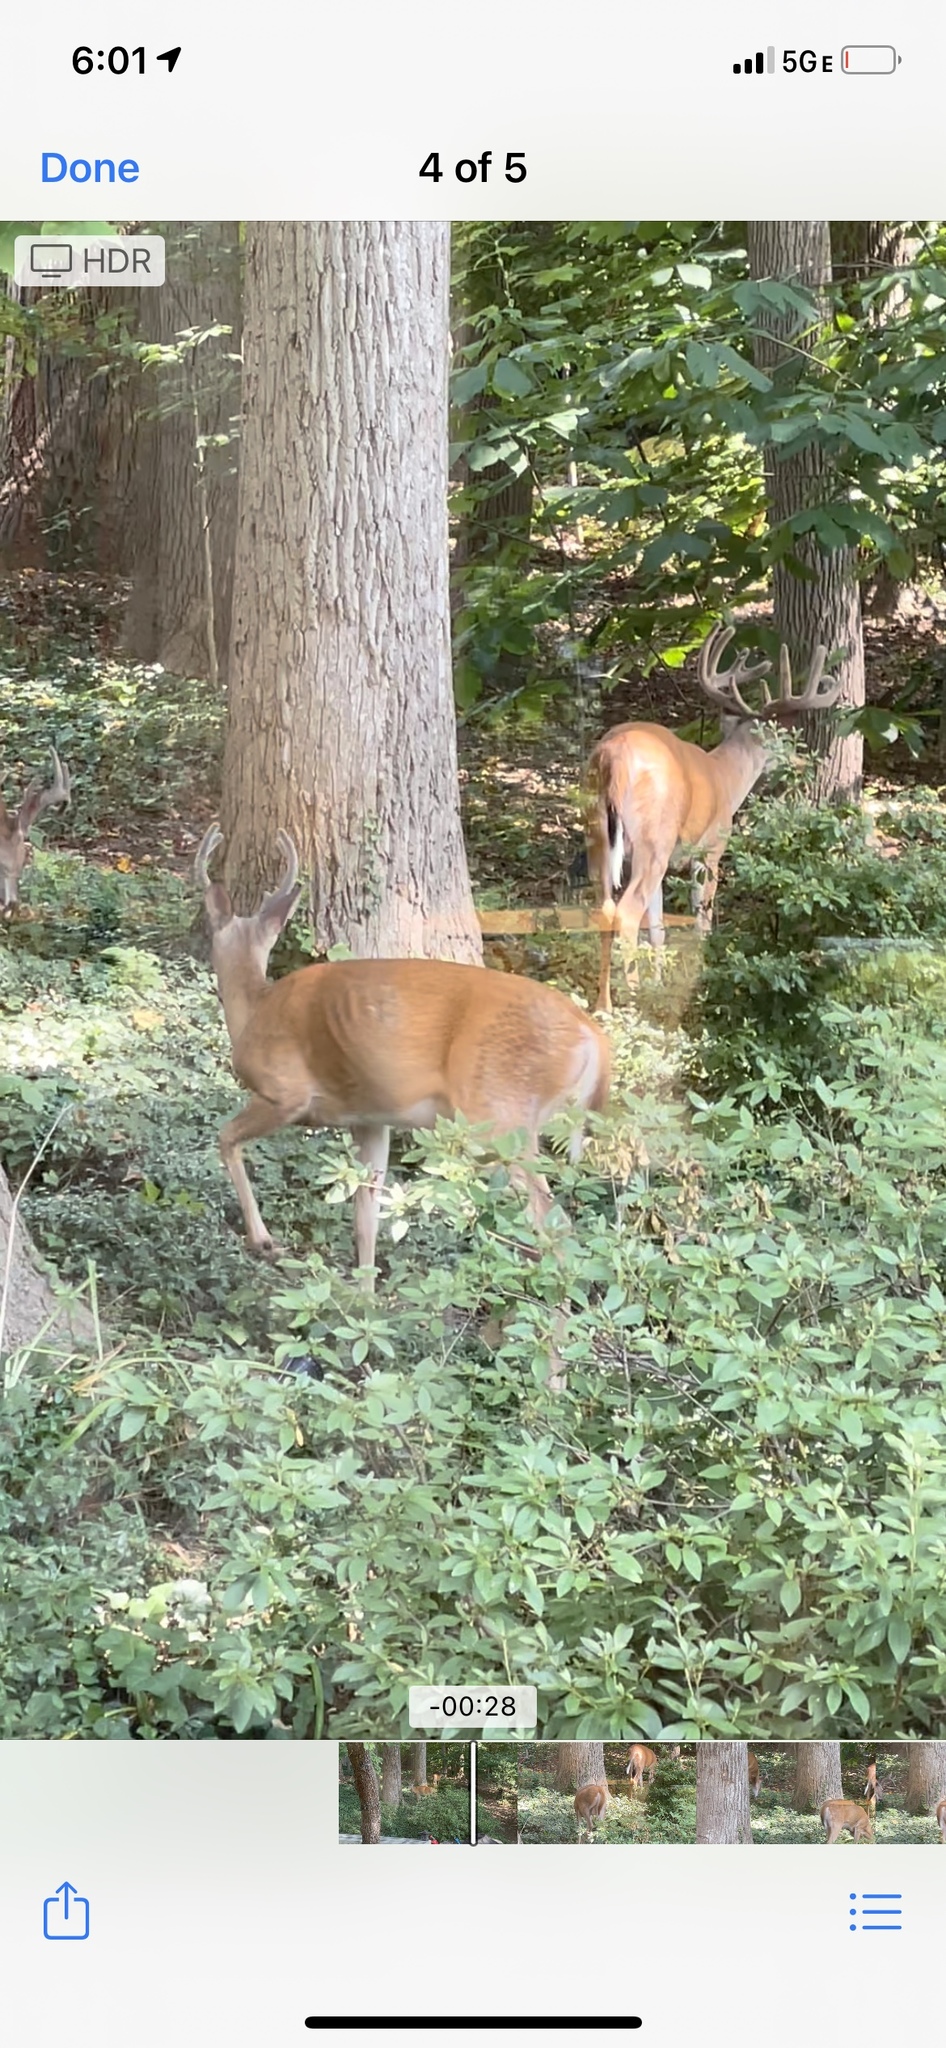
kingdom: Animalia
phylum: Chordata
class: Mammalia
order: Artiodactyla
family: Cervidae
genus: Odocoileus
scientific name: Odocoileus virginianus
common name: White-tailed deer
